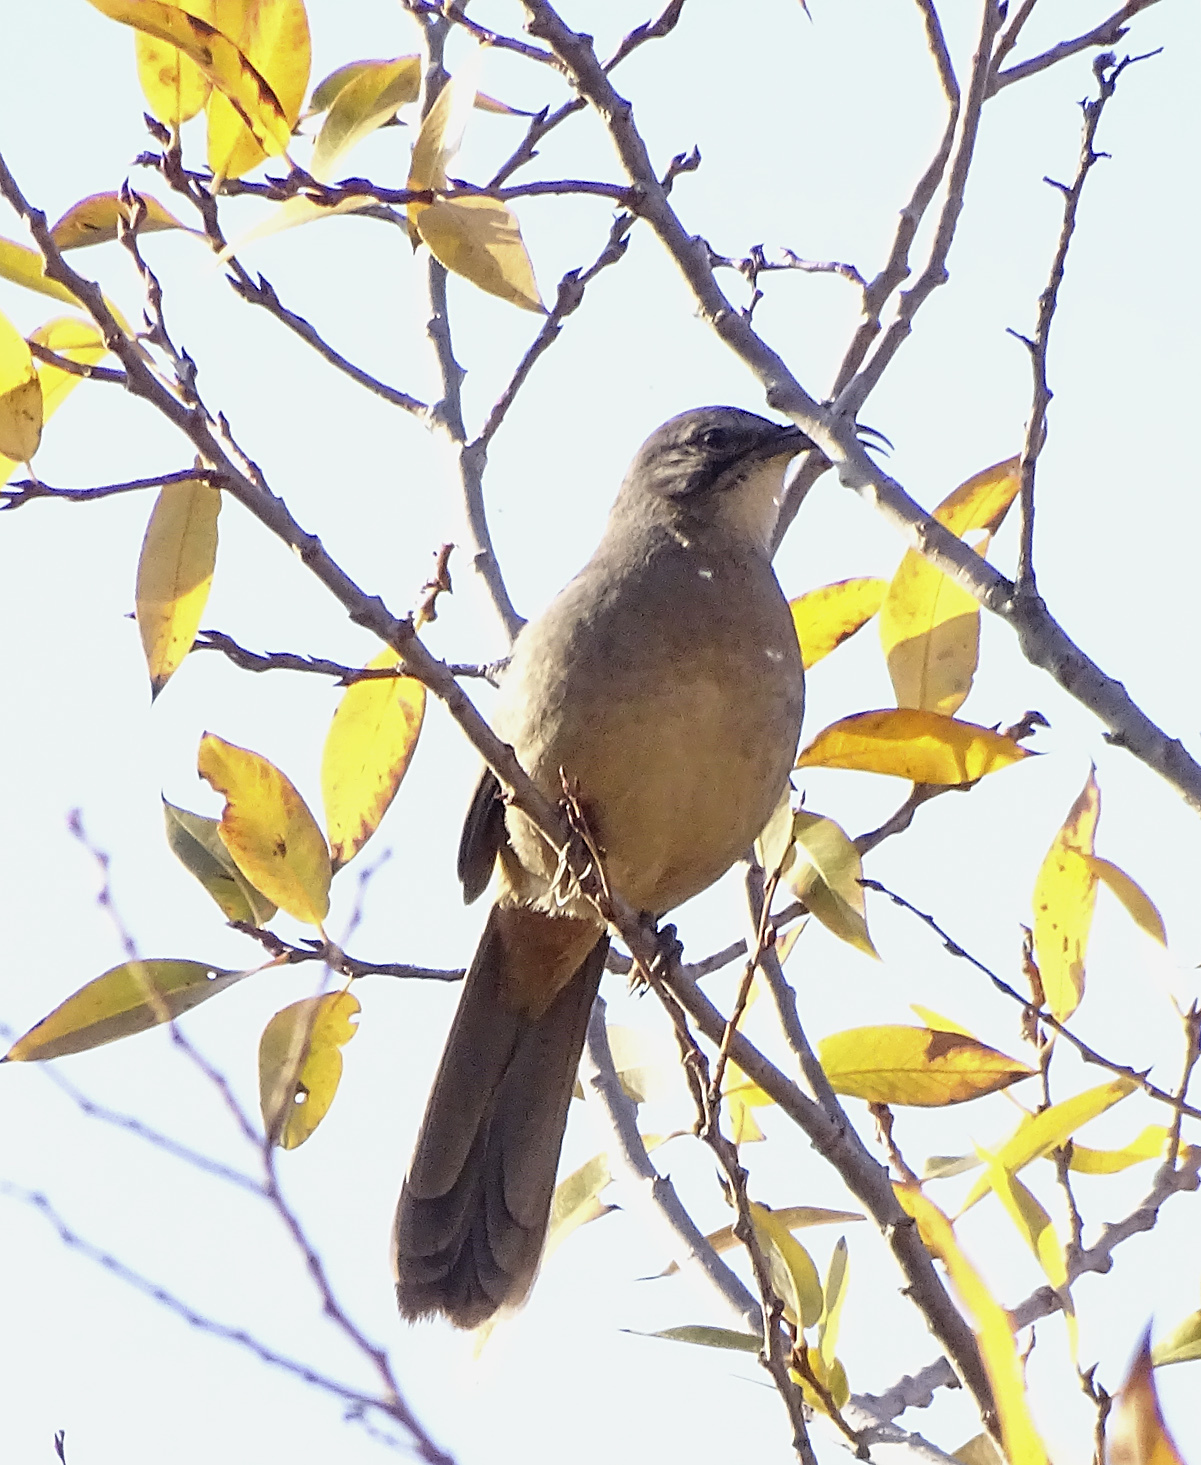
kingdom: Animalia
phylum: Chordata
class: Aves
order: Passeriformes
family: Mimidae
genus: Toxostoma
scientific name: Toxostoma redivivum
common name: California thrasher
